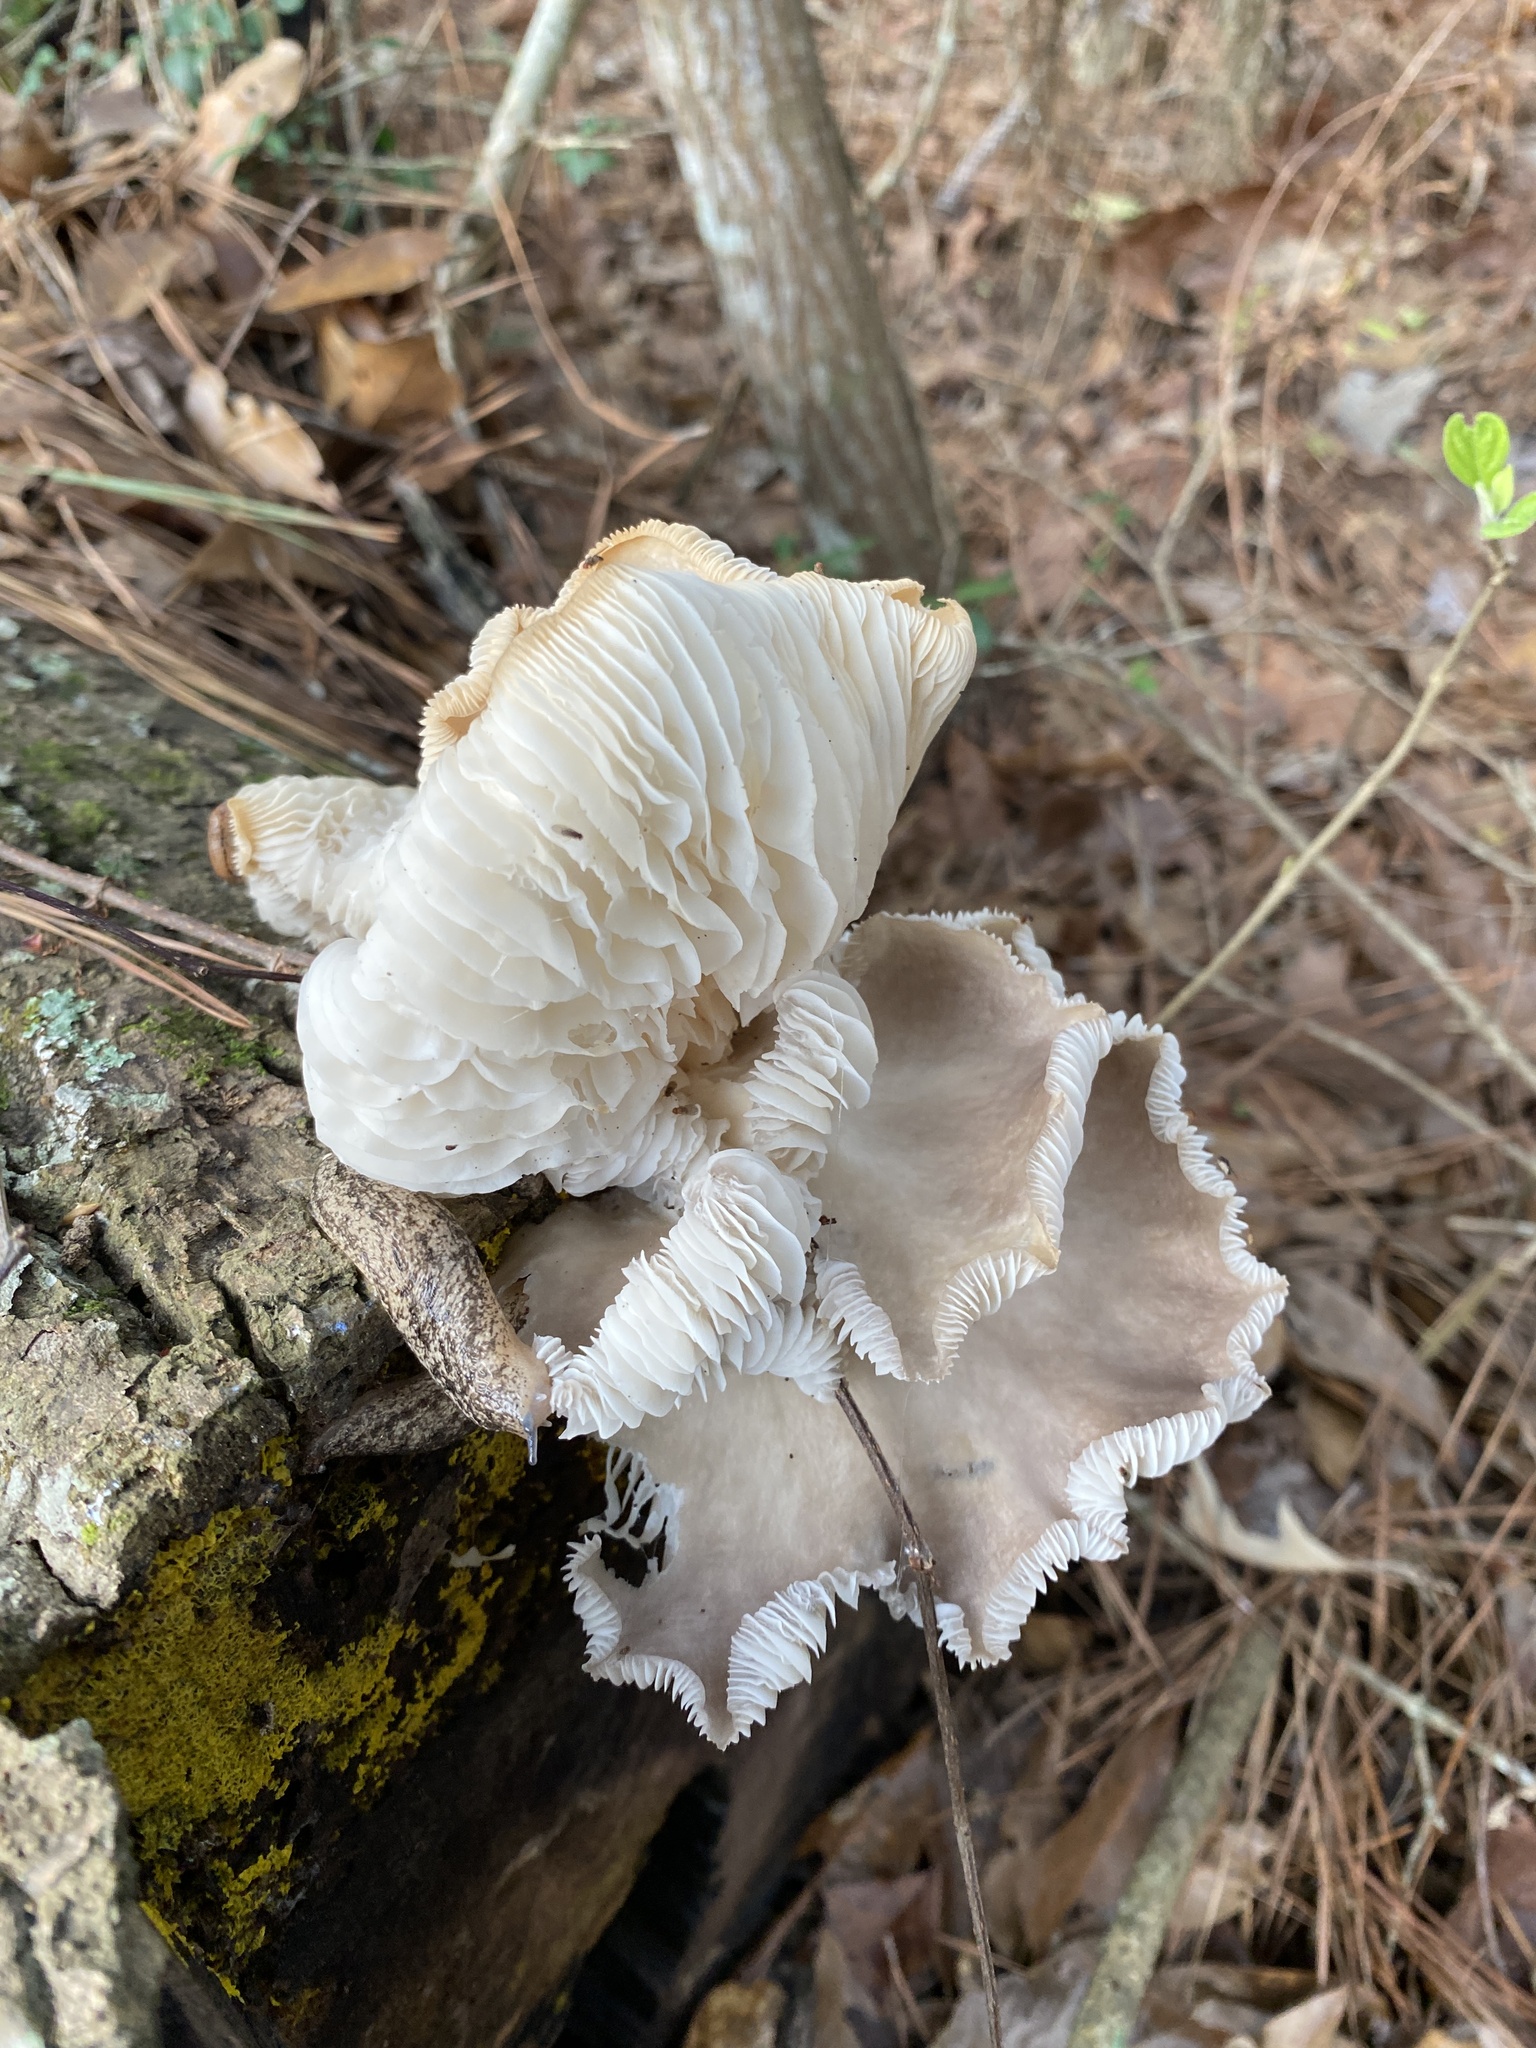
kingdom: Fungi
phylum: Basidiomycota
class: Agaricomycetes
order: Agaricales
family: Pleurotaceae
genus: Pleurotus
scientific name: Pleurotus ostreatus
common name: Oyster mushroom
